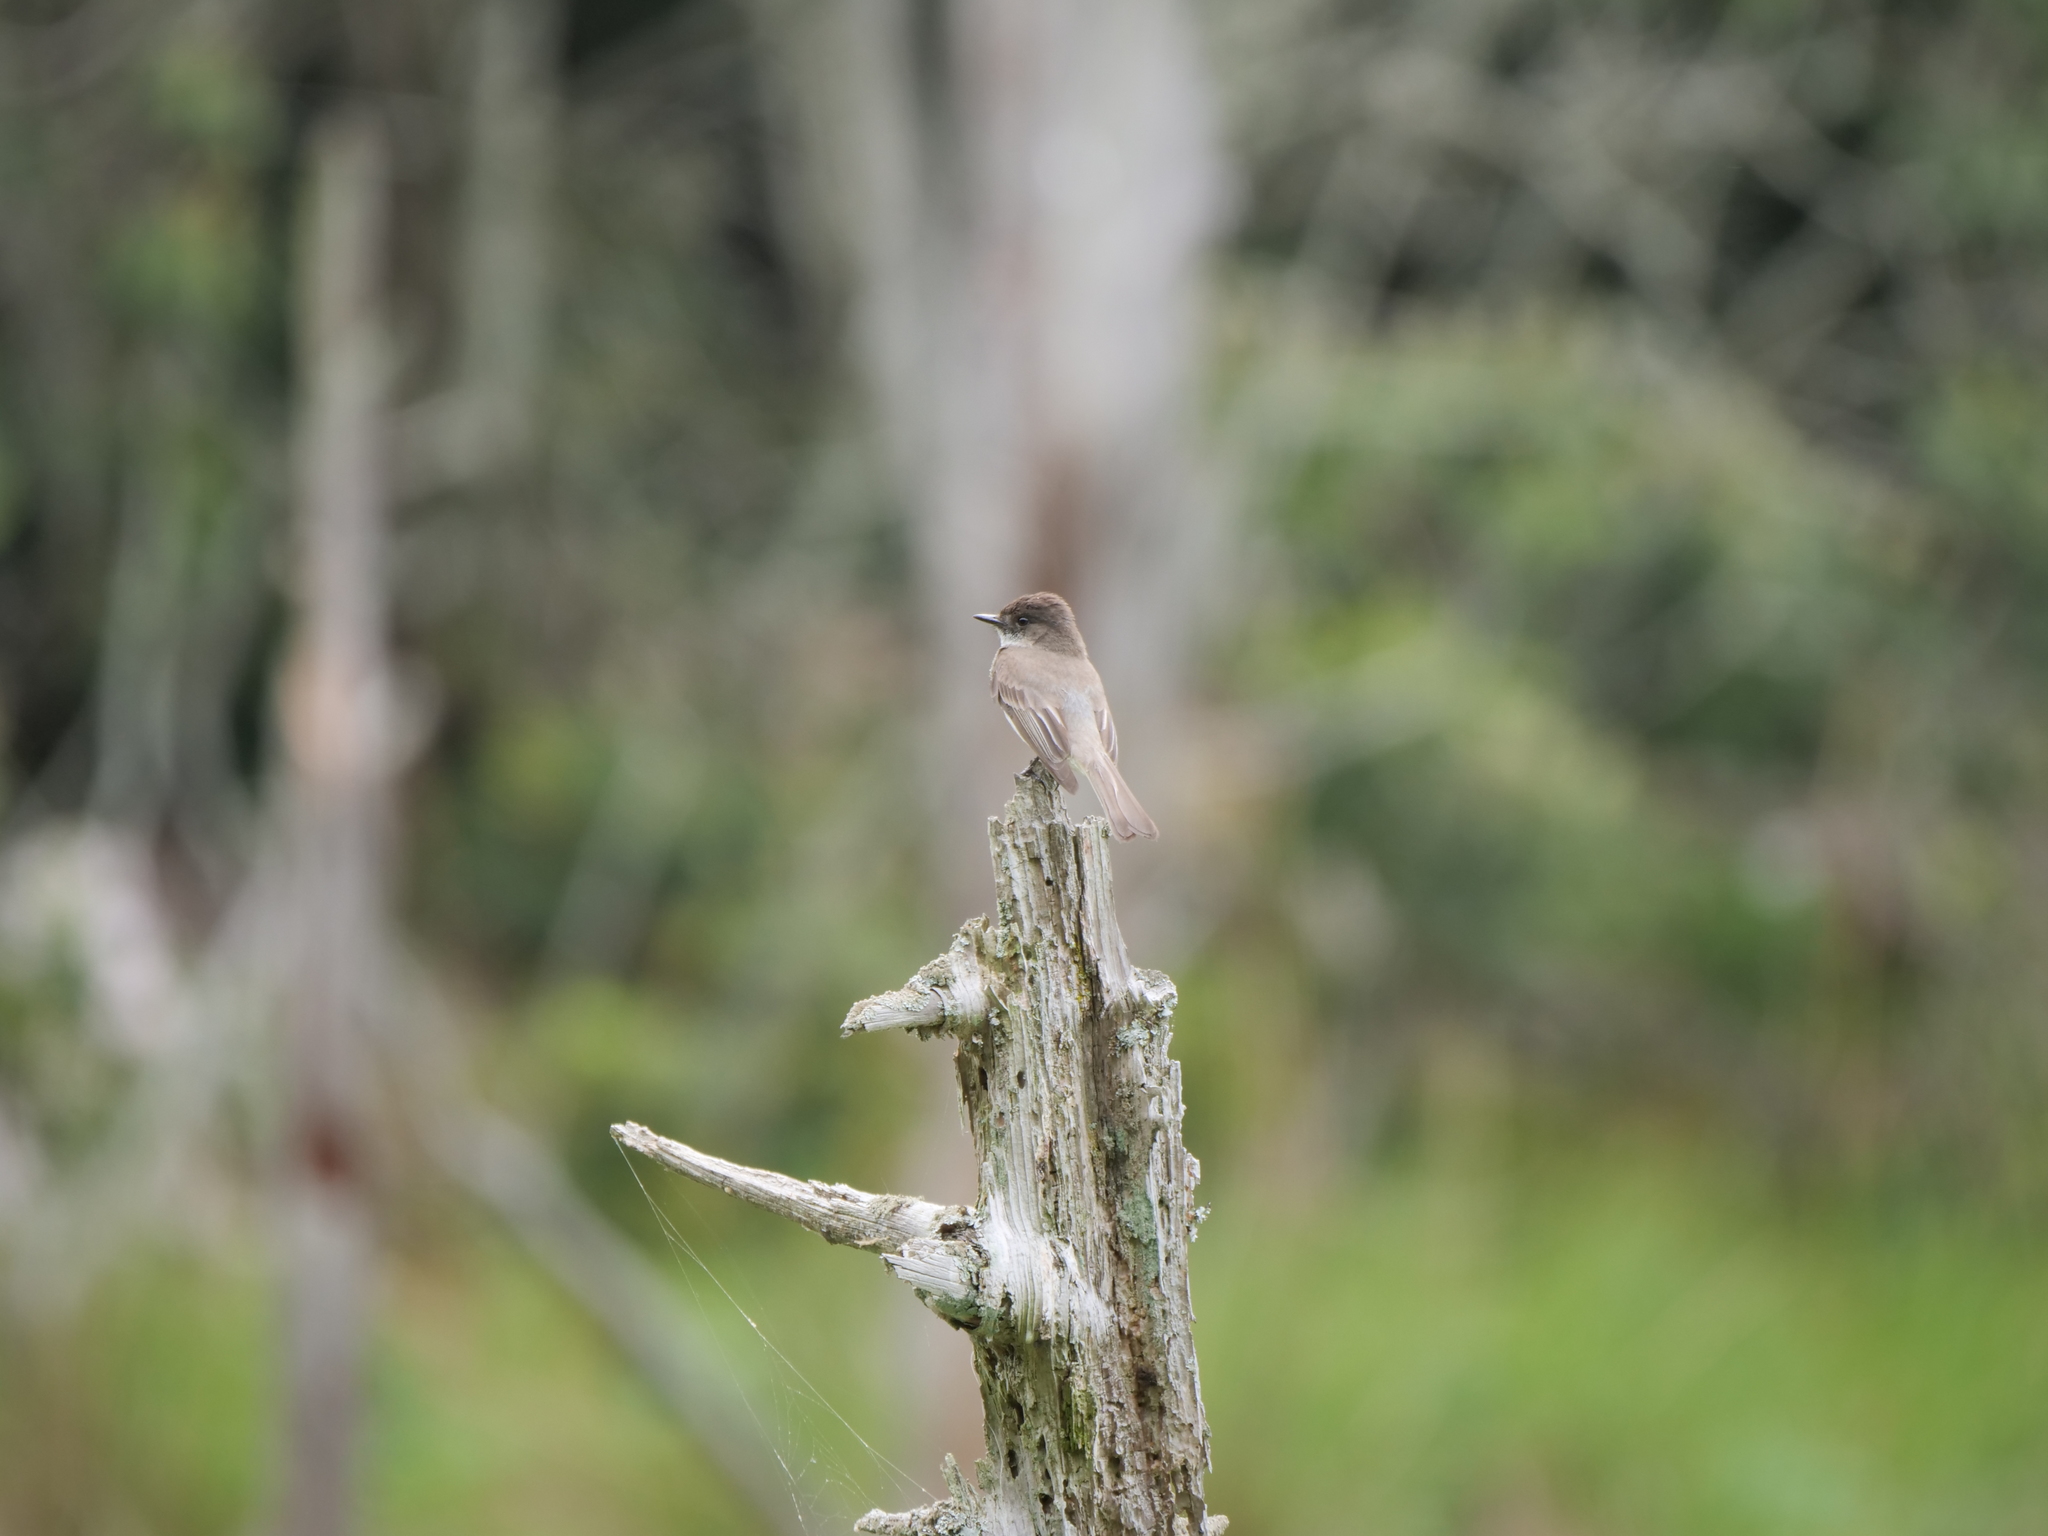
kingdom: Animalia
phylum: Chordata
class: Aves
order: Passeriformes
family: Tyrannidae
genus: Sayornis
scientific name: Sayornis phoebe
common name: Eastern phoebe
